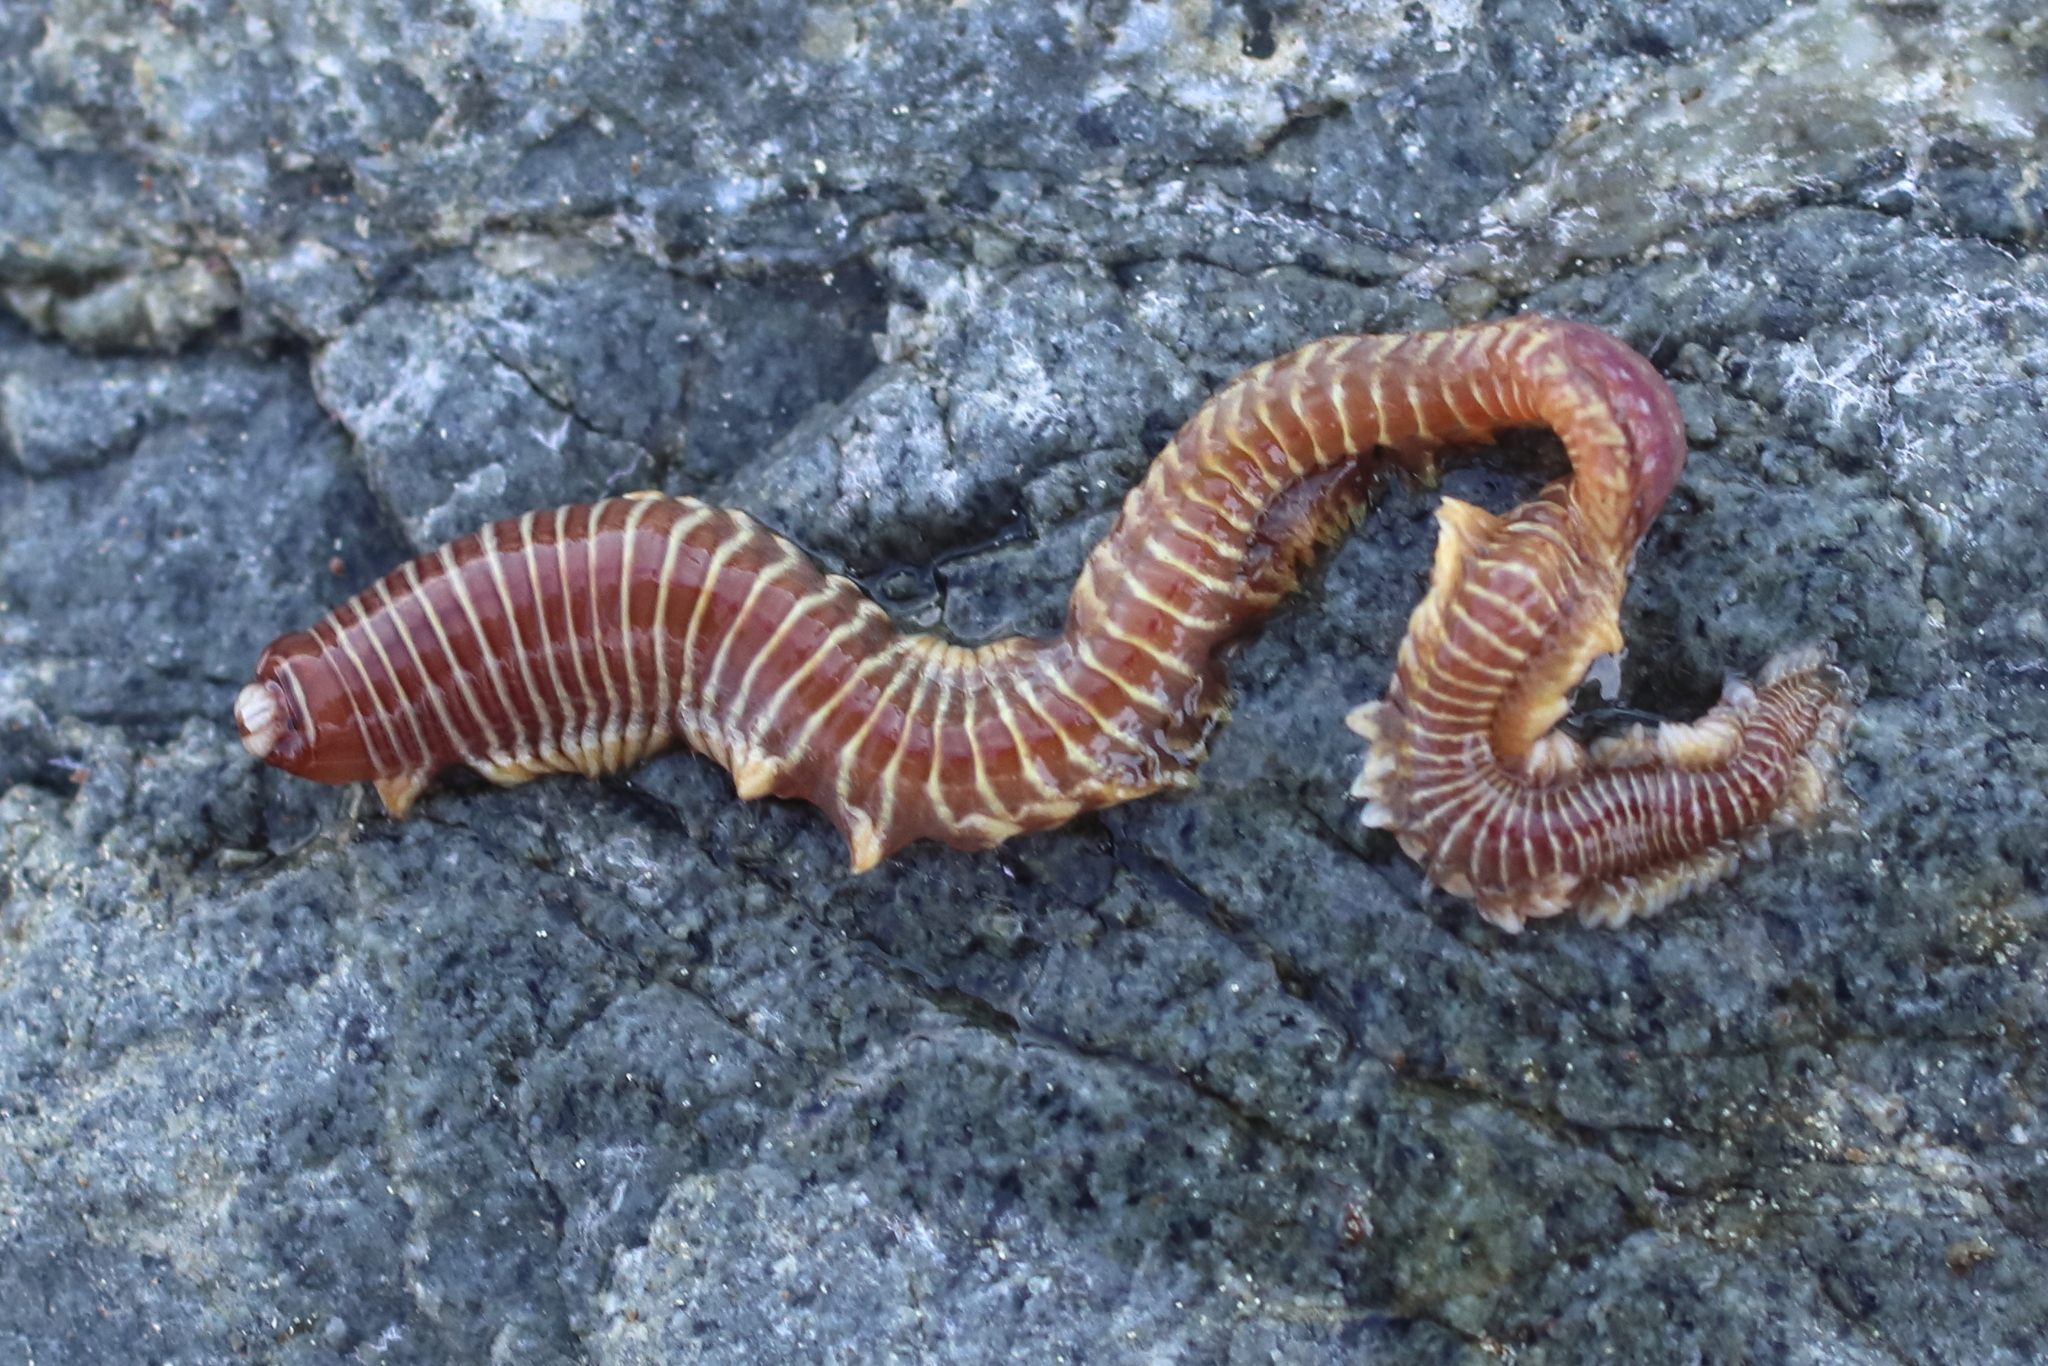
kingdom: Animalia
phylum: Annelida
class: Polychaeta
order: Phyllodocida
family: Nereididae
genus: Cheilonereis
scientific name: Cheilonereis cyclurus
